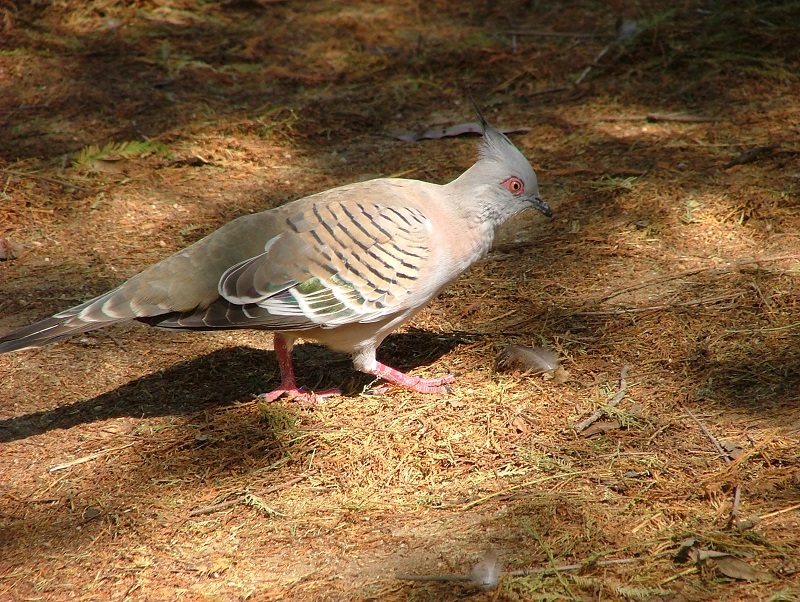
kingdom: Animalia
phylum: Chordata
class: Aves
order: Columbiformes
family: Columbidae
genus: Ocyphaps
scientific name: Ocyphaps lophotes
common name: Crested pigeon
